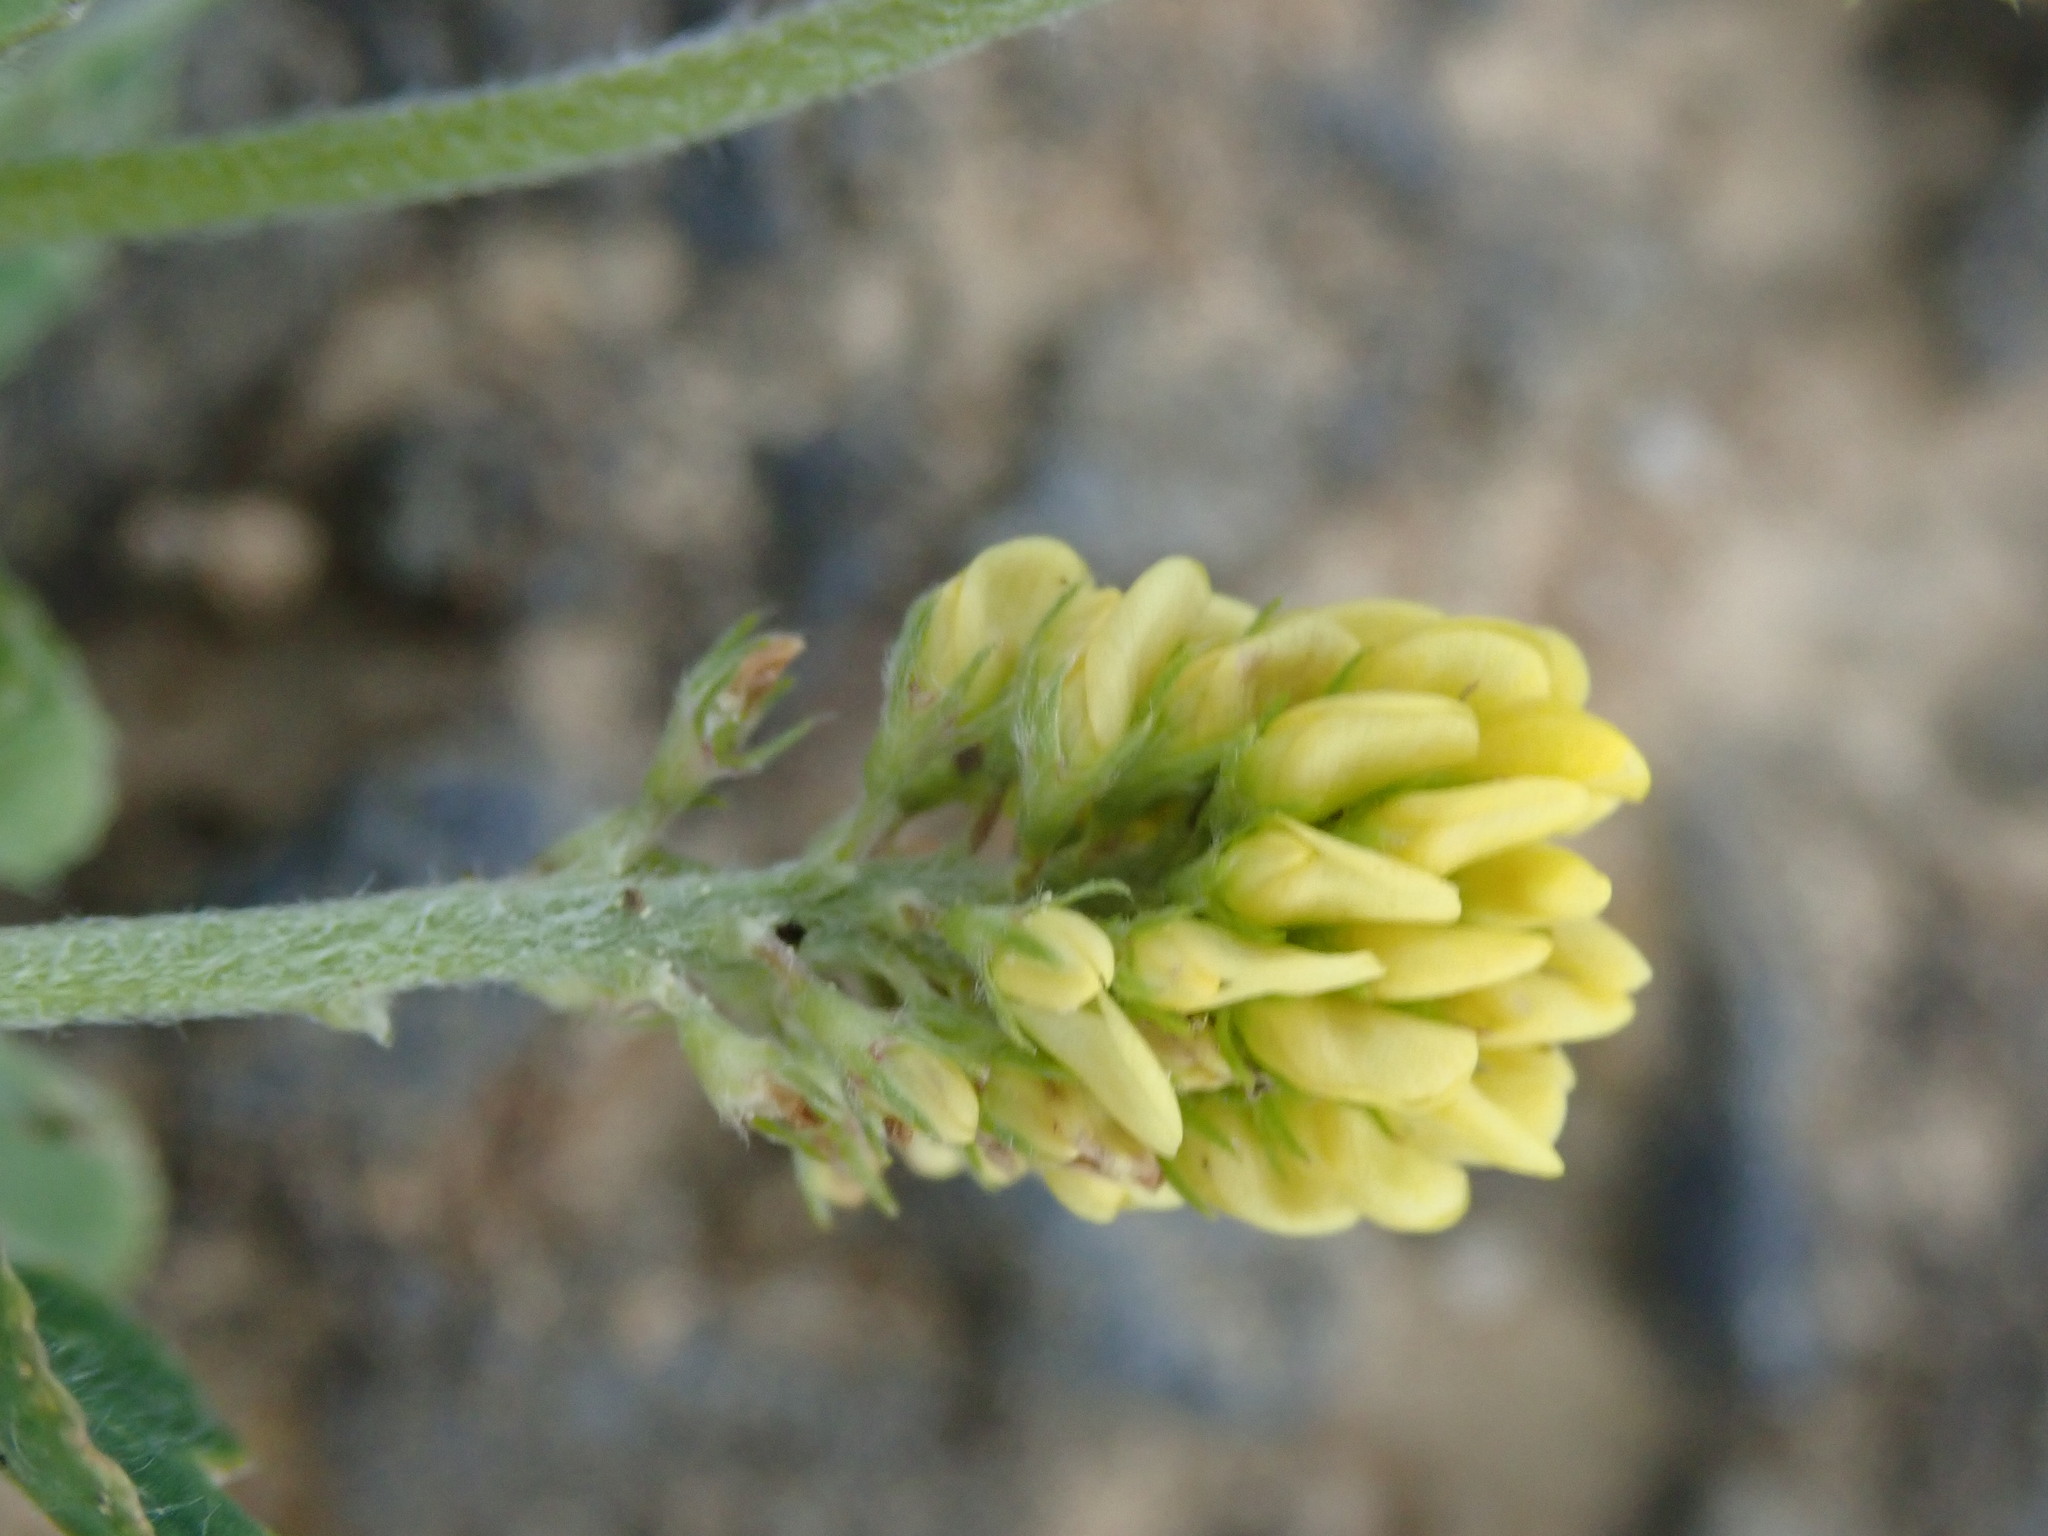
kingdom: Plantae
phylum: Tracheophyta
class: Magnoliopsida
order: Fabales
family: Fabaceae
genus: Medicago
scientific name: Medicago lupulina
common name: Black medick
